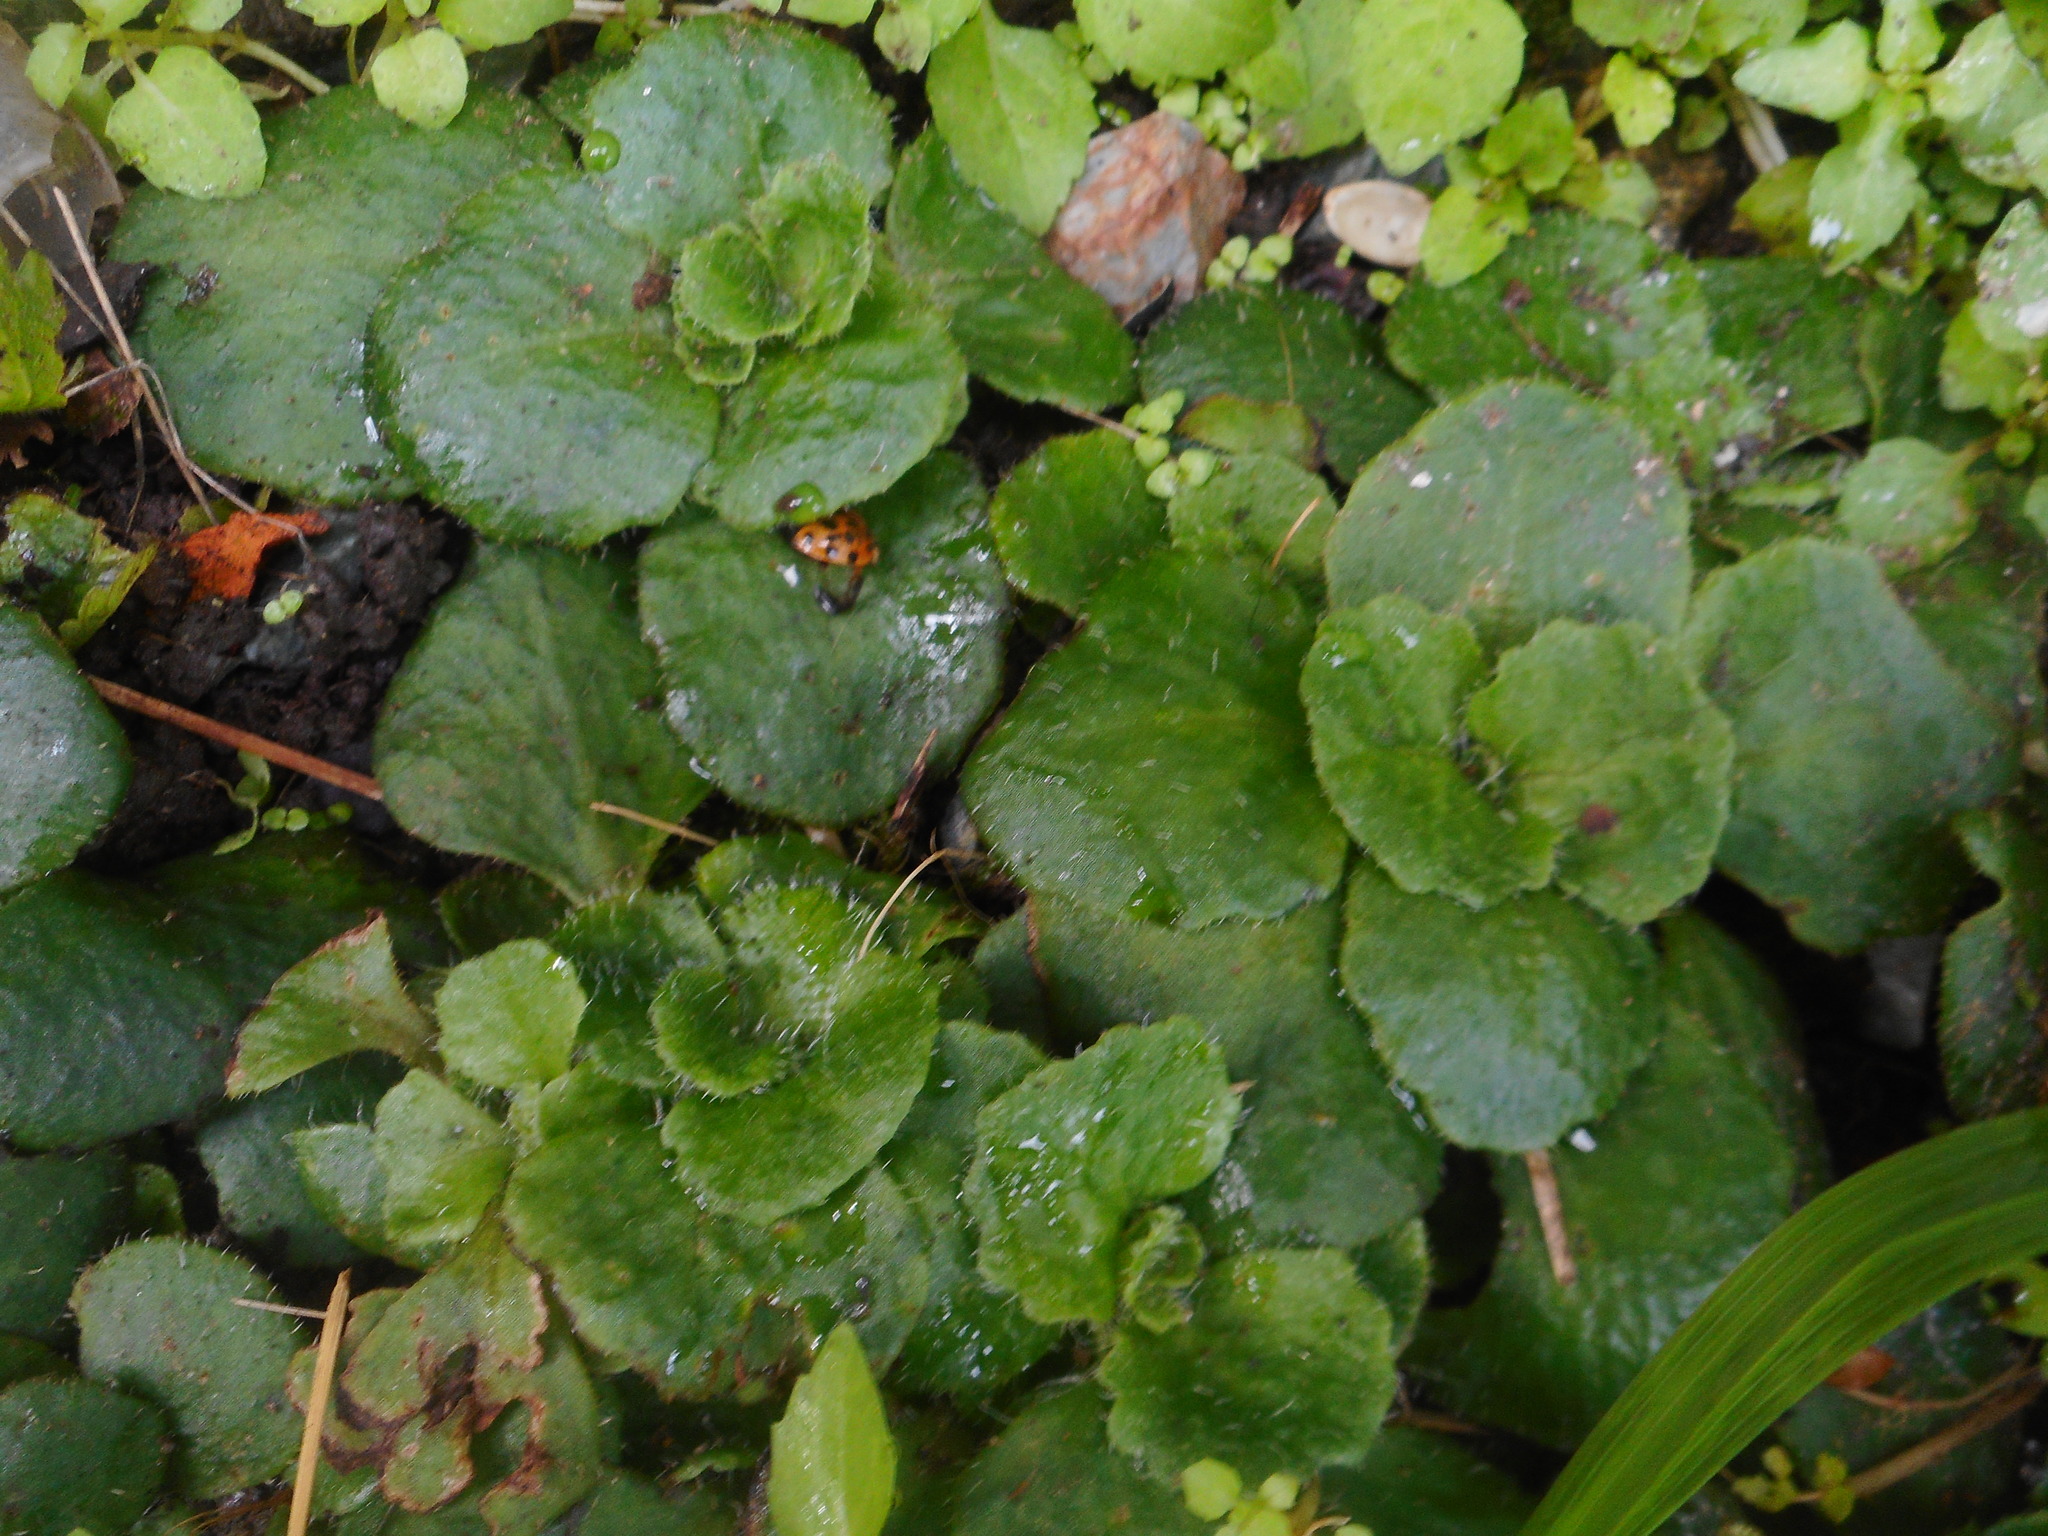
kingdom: Plantae
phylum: Tracheophyta
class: Magnoliopsida
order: Saxifragales
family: Saxifragaceae
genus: Chrysosplenium
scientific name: Chrysosplenium pilosum
